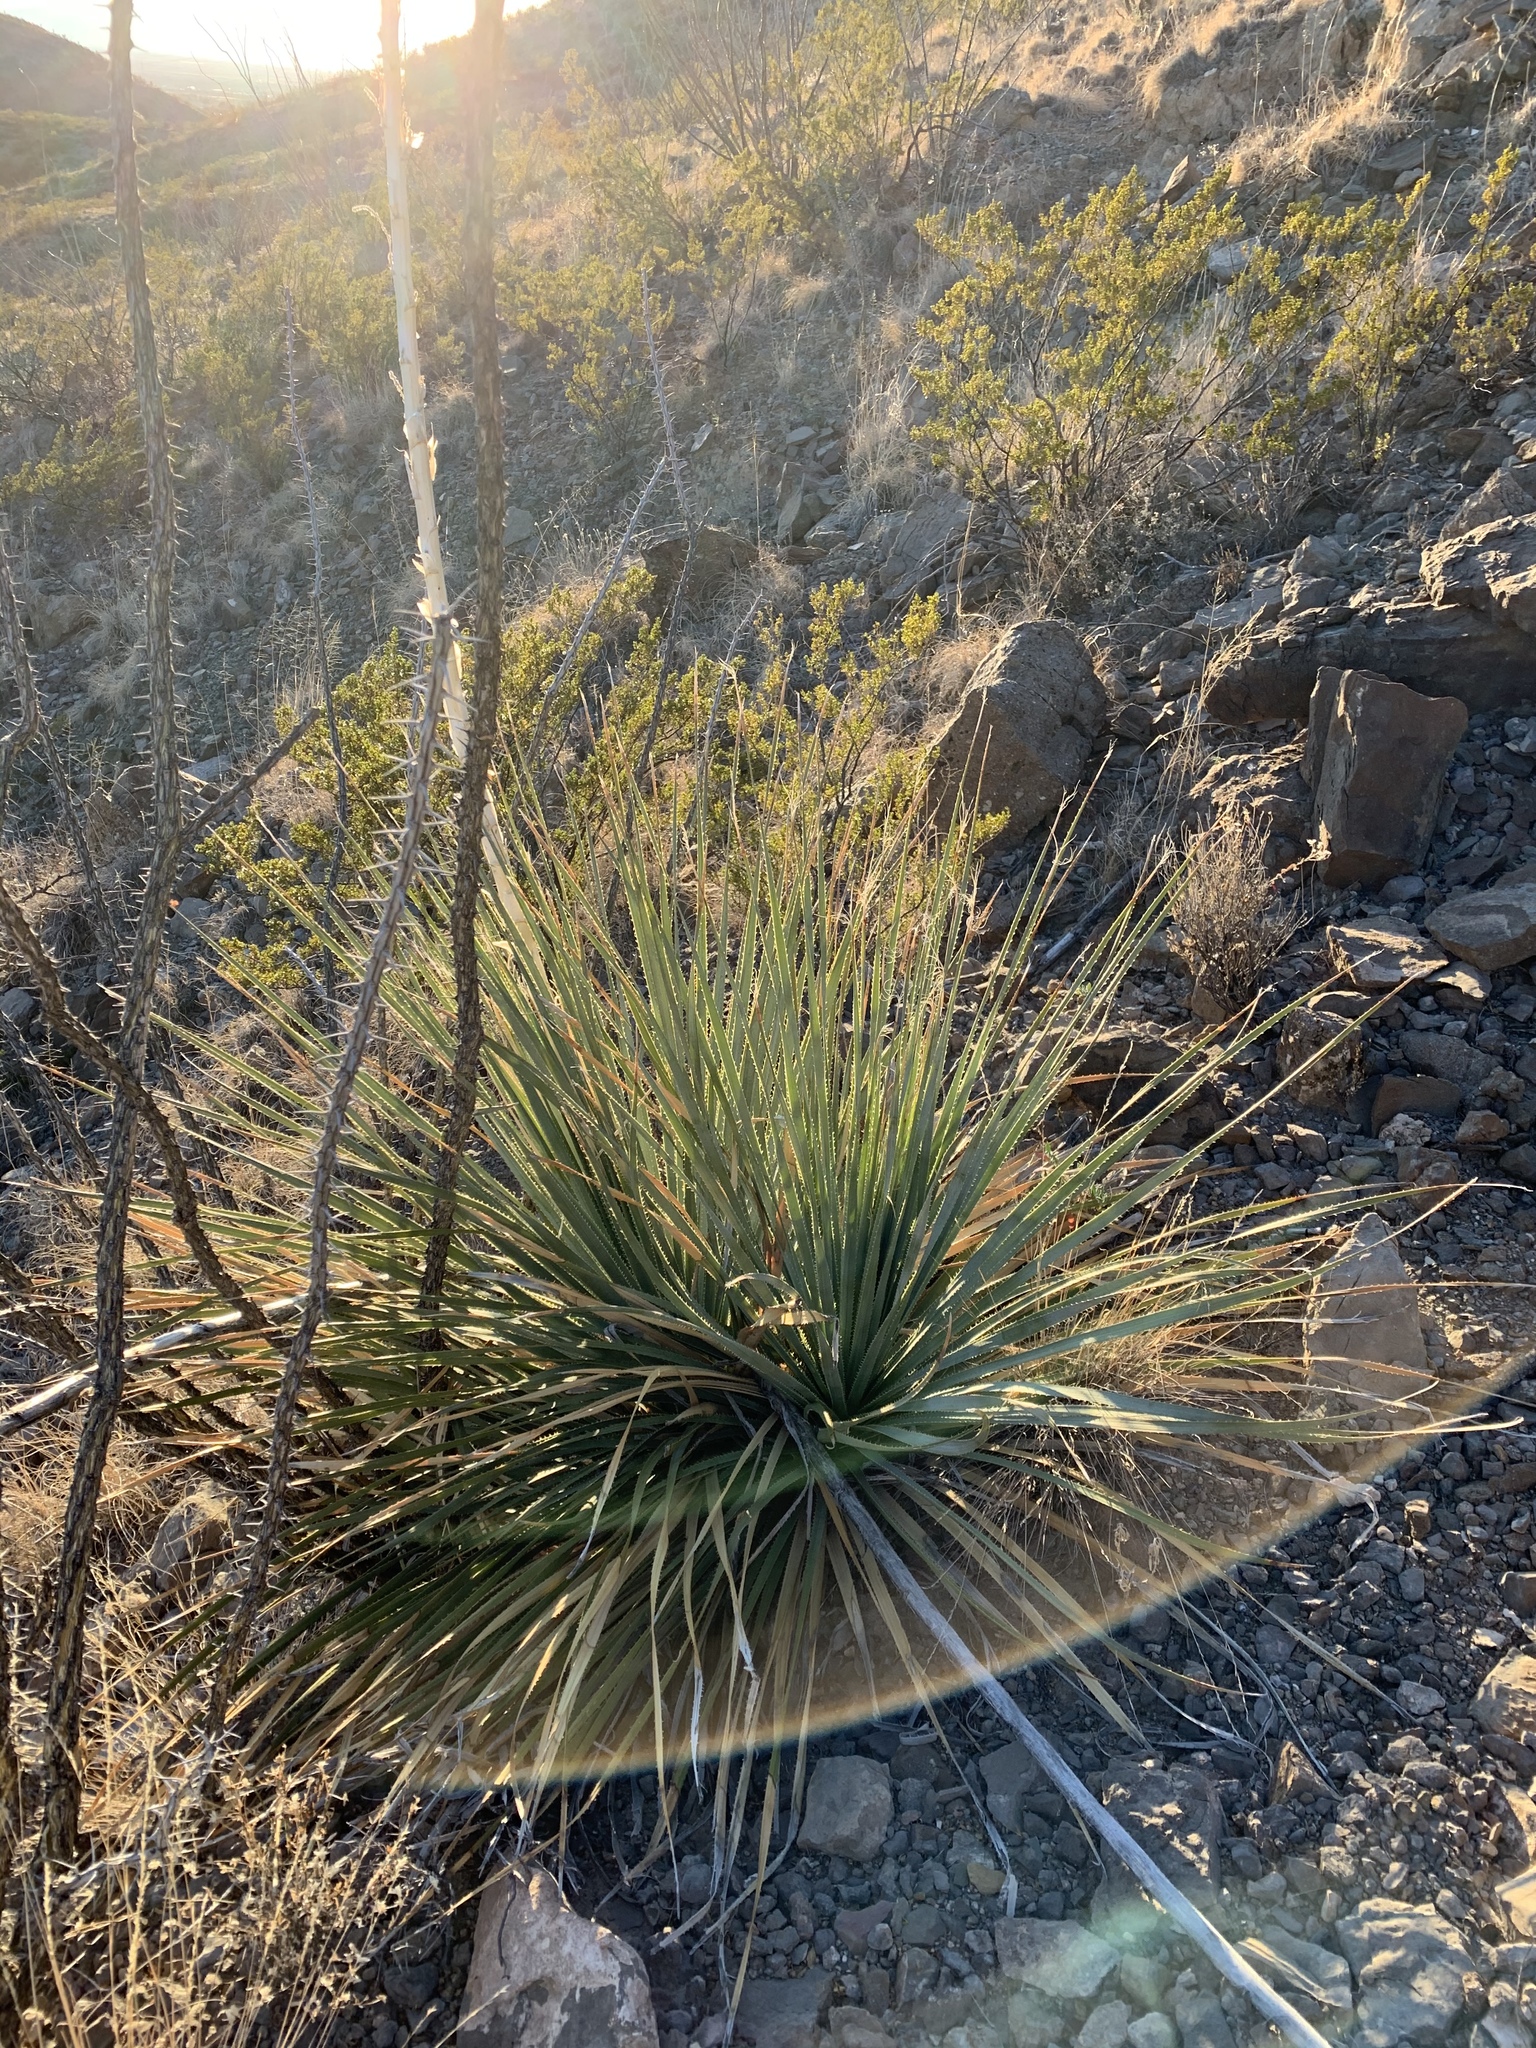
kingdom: Plantae
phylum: Tracheophyta
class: Liliopsida
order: Asparagales
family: Asparagaceae
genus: Dasylirion
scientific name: Dasylirion wheeleri
